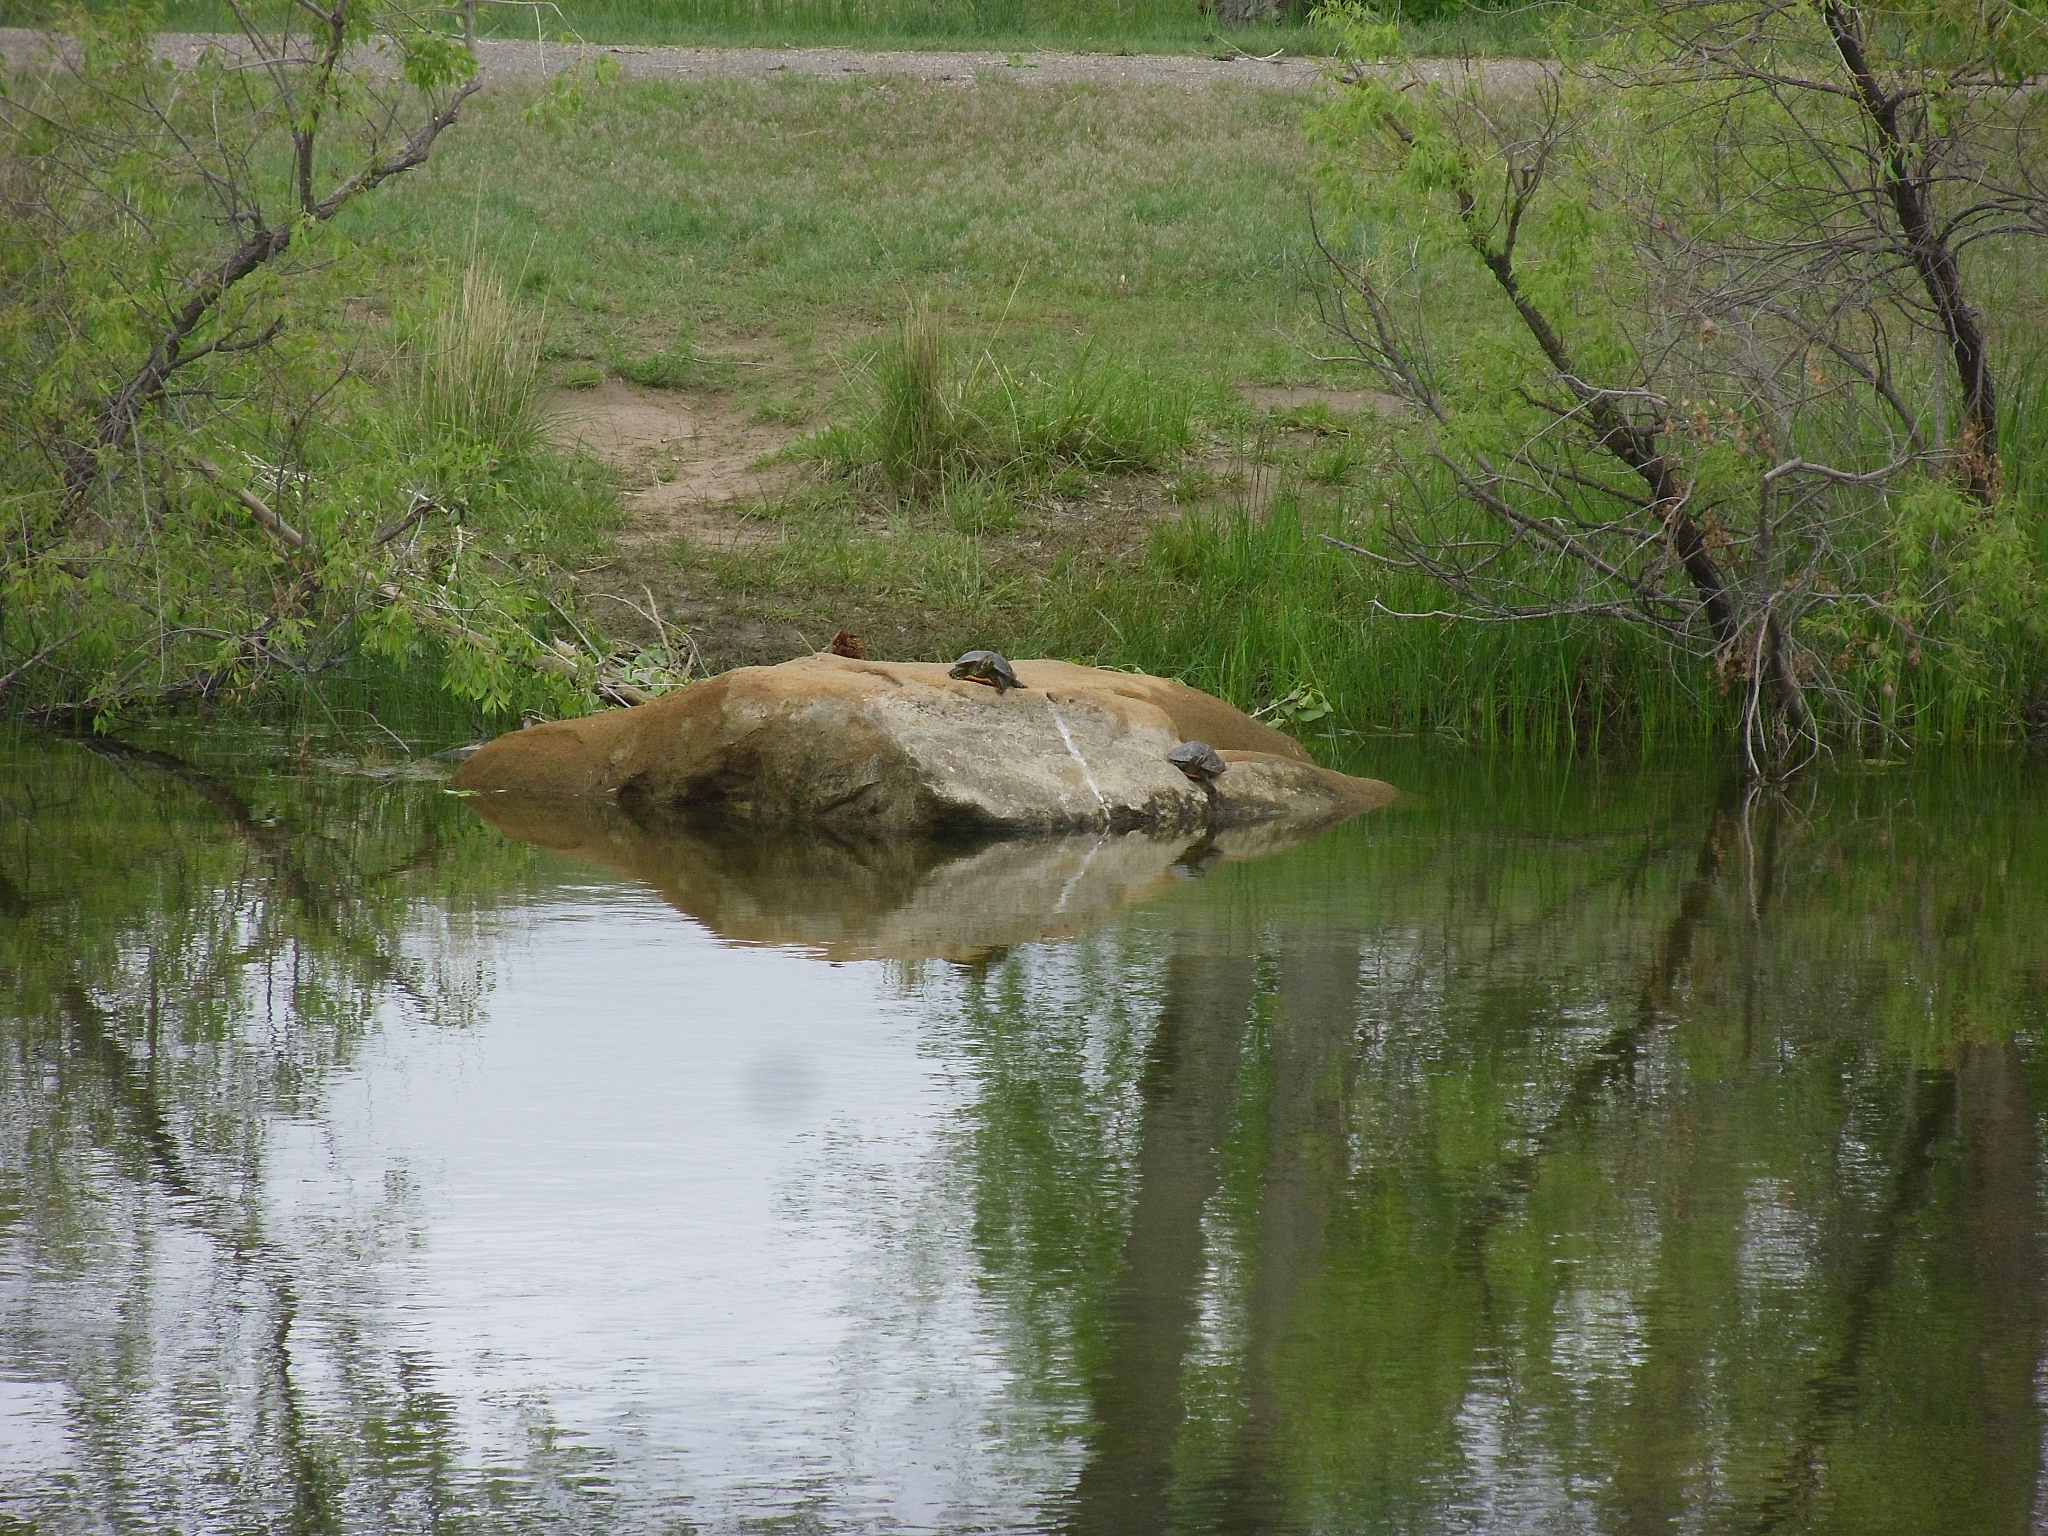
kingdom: Animalia
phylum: Chordata
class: Testudines
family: Emydidae
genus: Trachemys
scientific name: Trachemys scripta
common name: Slider
